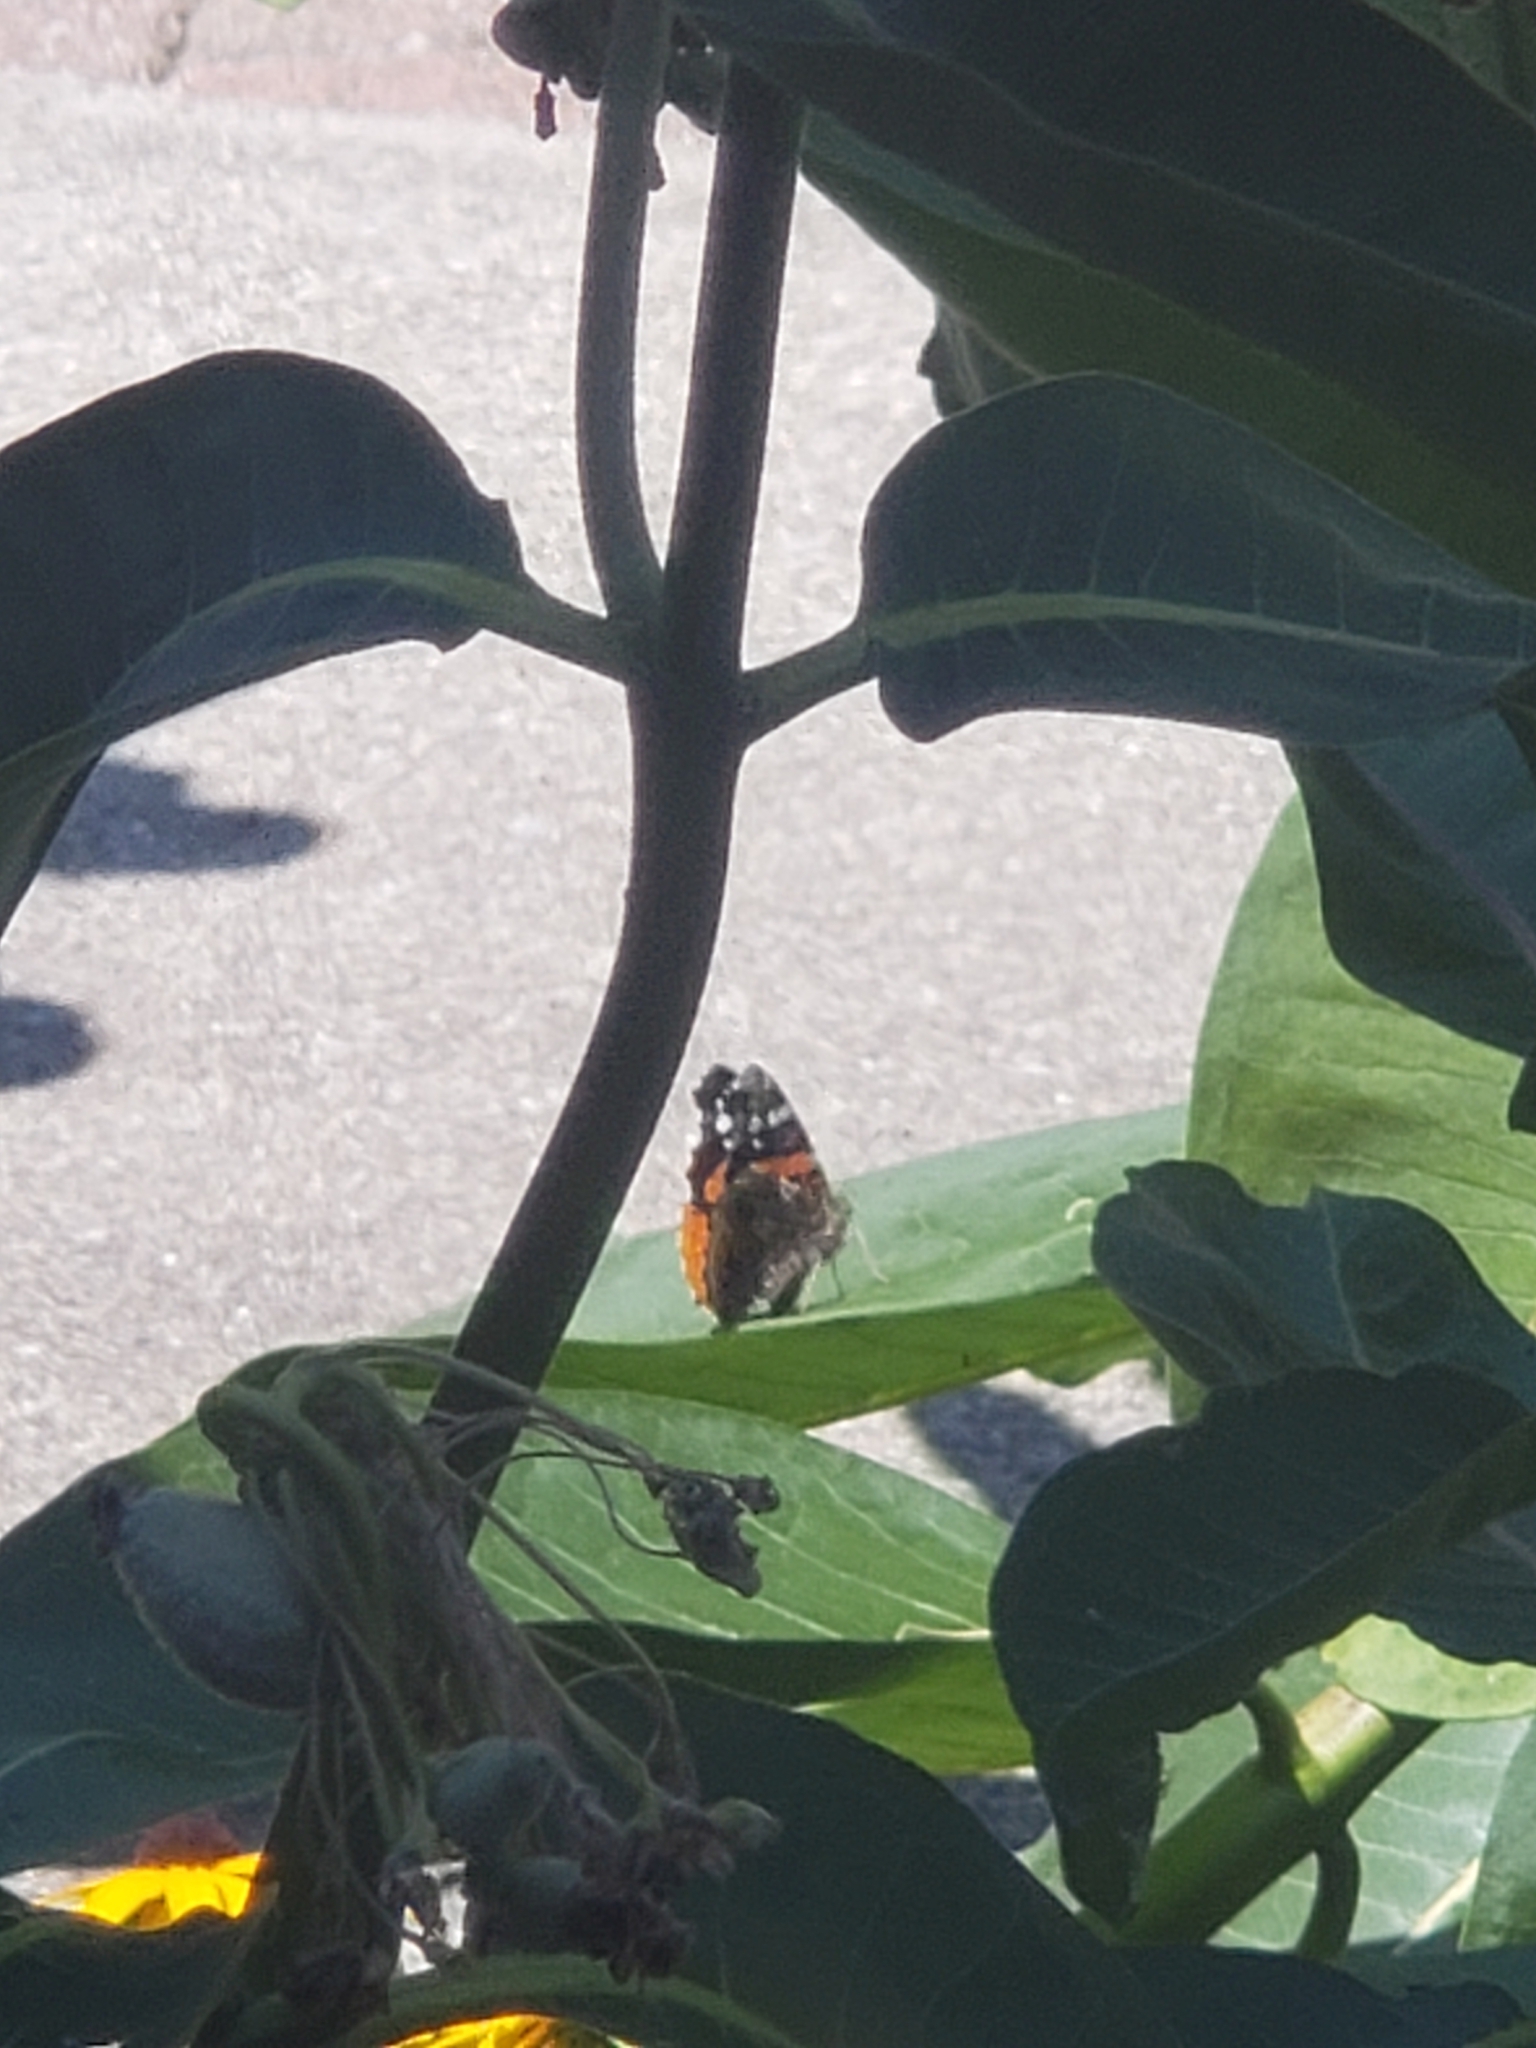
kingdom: Animalia
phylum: Arthropoda
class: Insecta
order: Lepidoptera
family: Nymphalidae
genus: Vanessa
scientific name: Vanessa atalanta
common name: Red admiral
